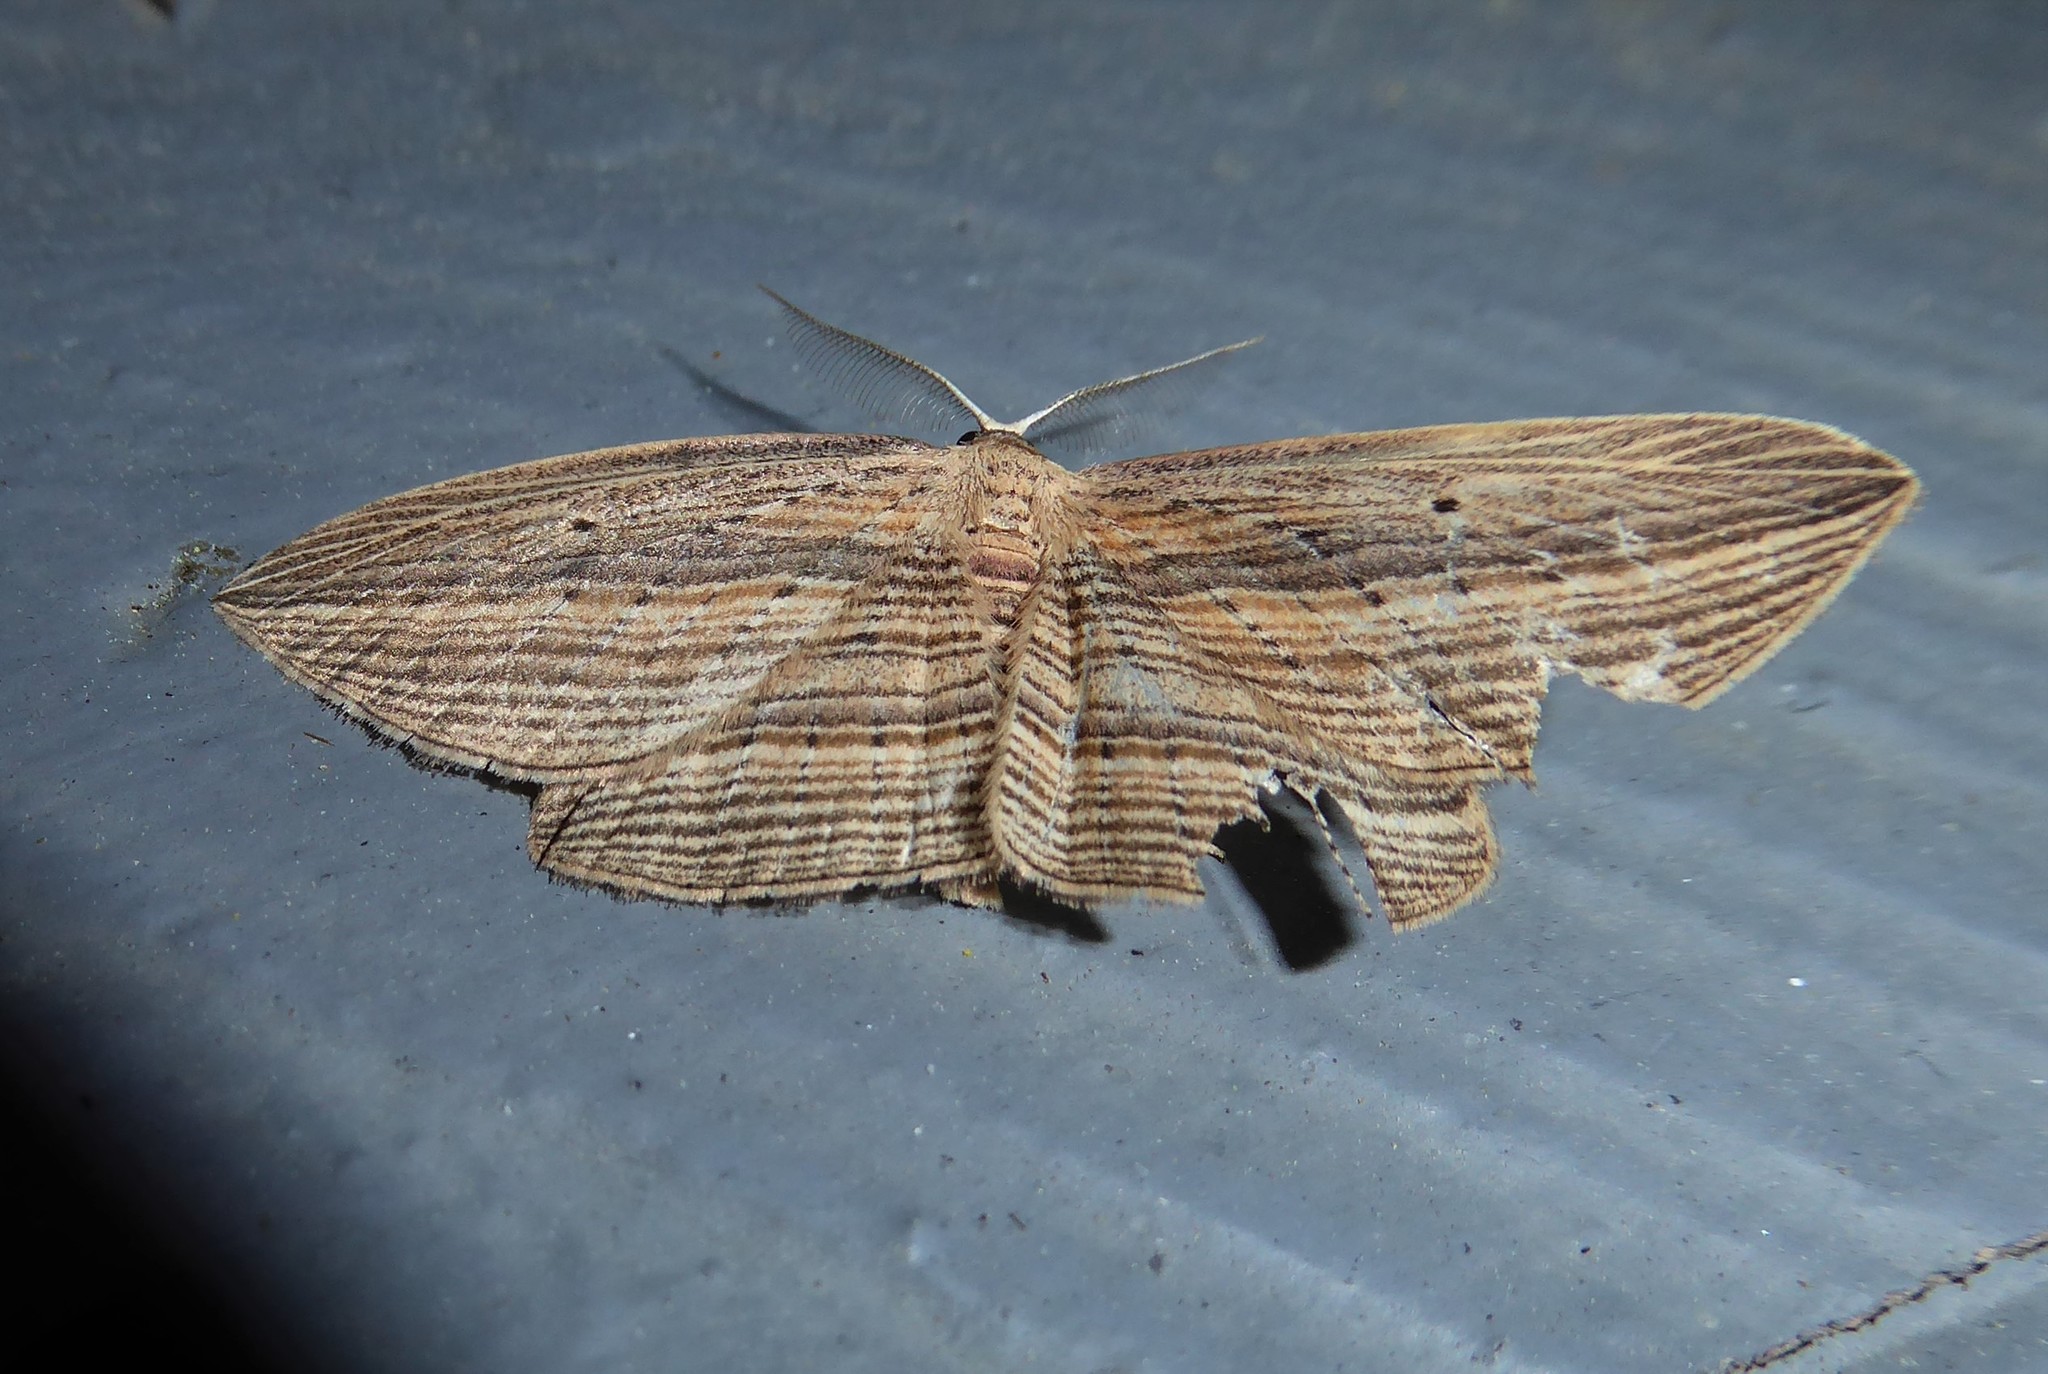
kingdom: Animalia
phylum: Arthropoda
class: Insecta
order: Lepidoptera
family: Geometridae
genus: Epiphryne
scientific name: Epiphryne verriculata
